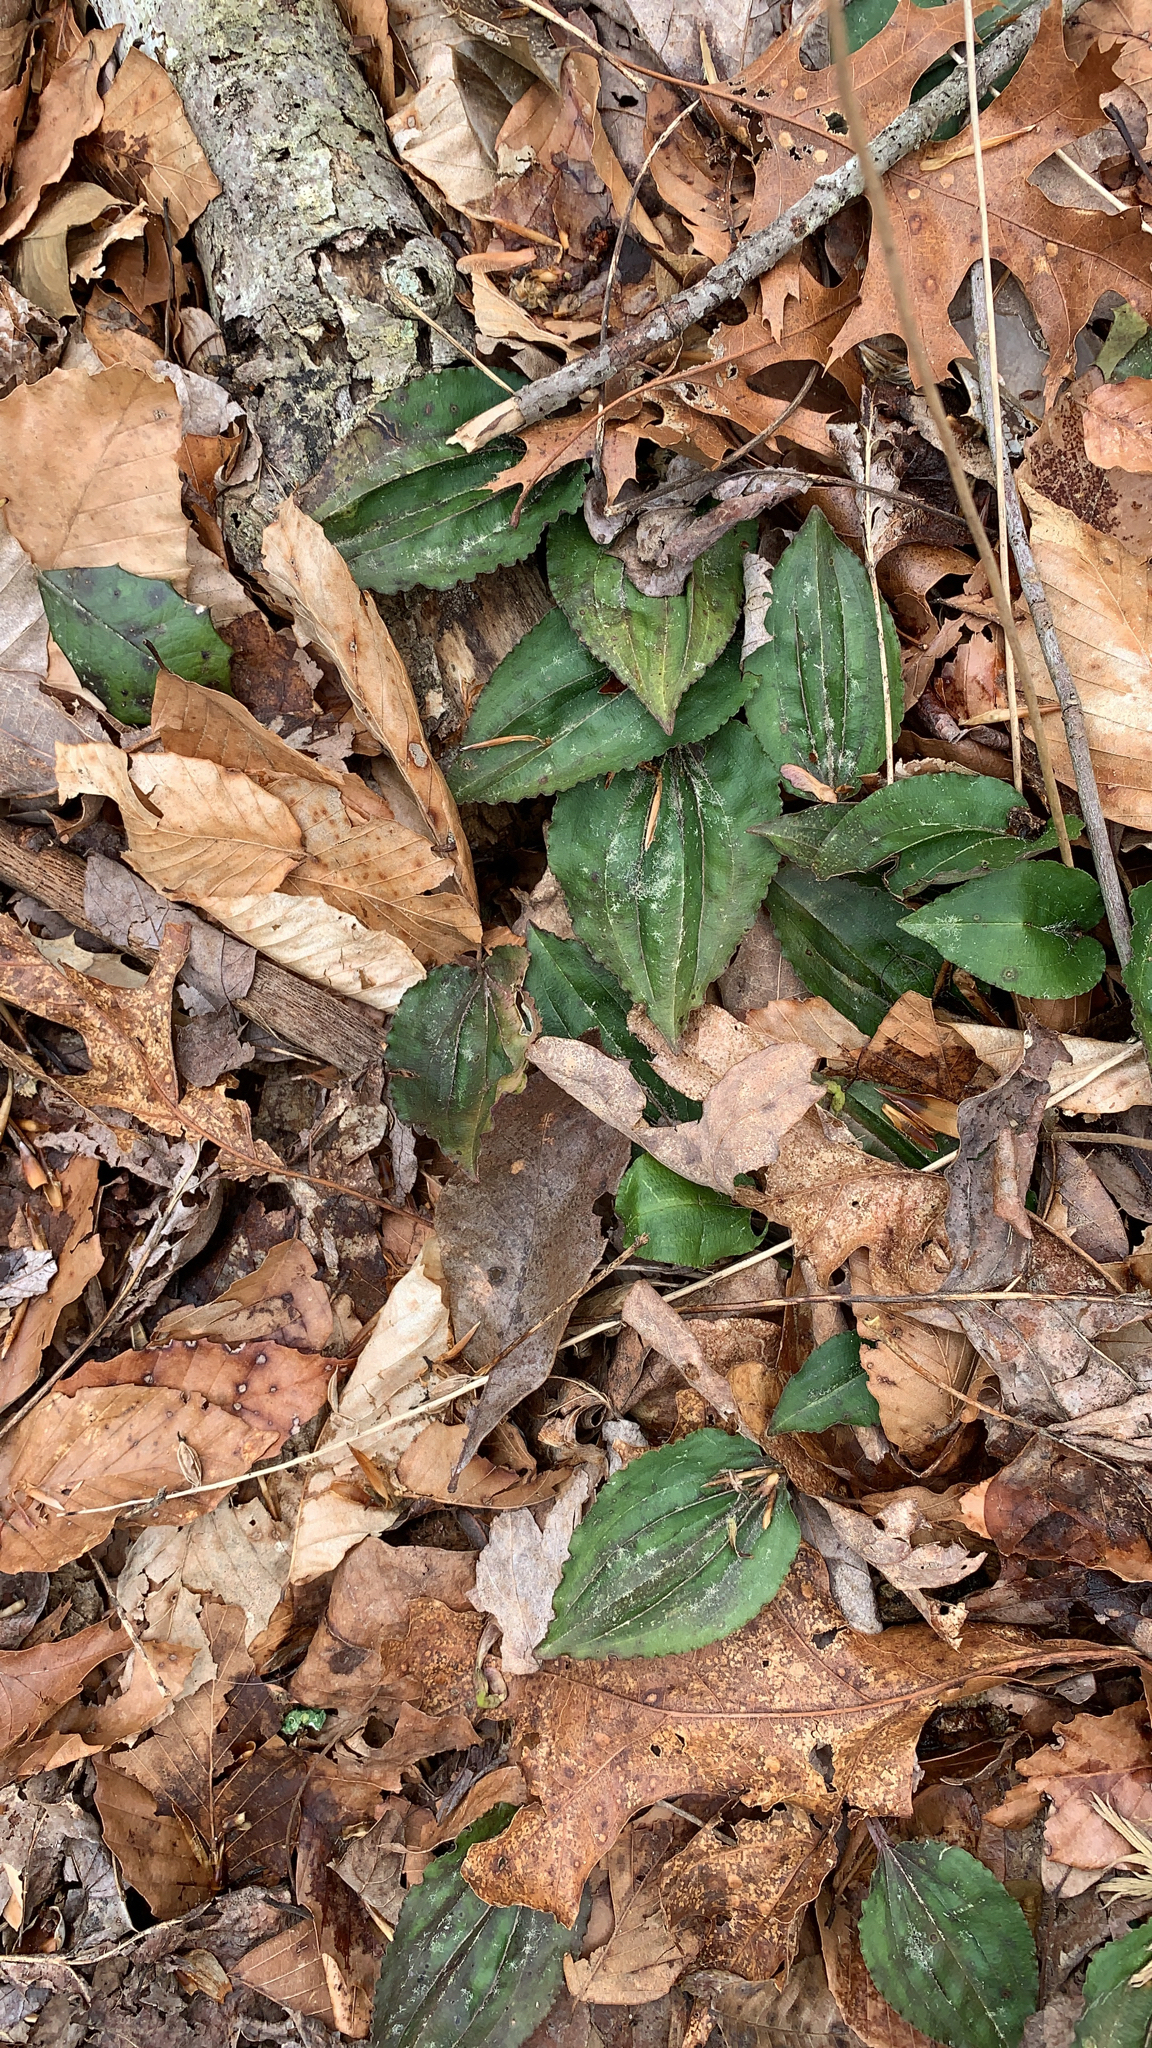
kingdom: Plantae
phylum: Tracheophyta
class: Liliopsida
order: Asparagales
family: Orchidaceae
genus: Tipularia
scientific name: Tipularia discolor
